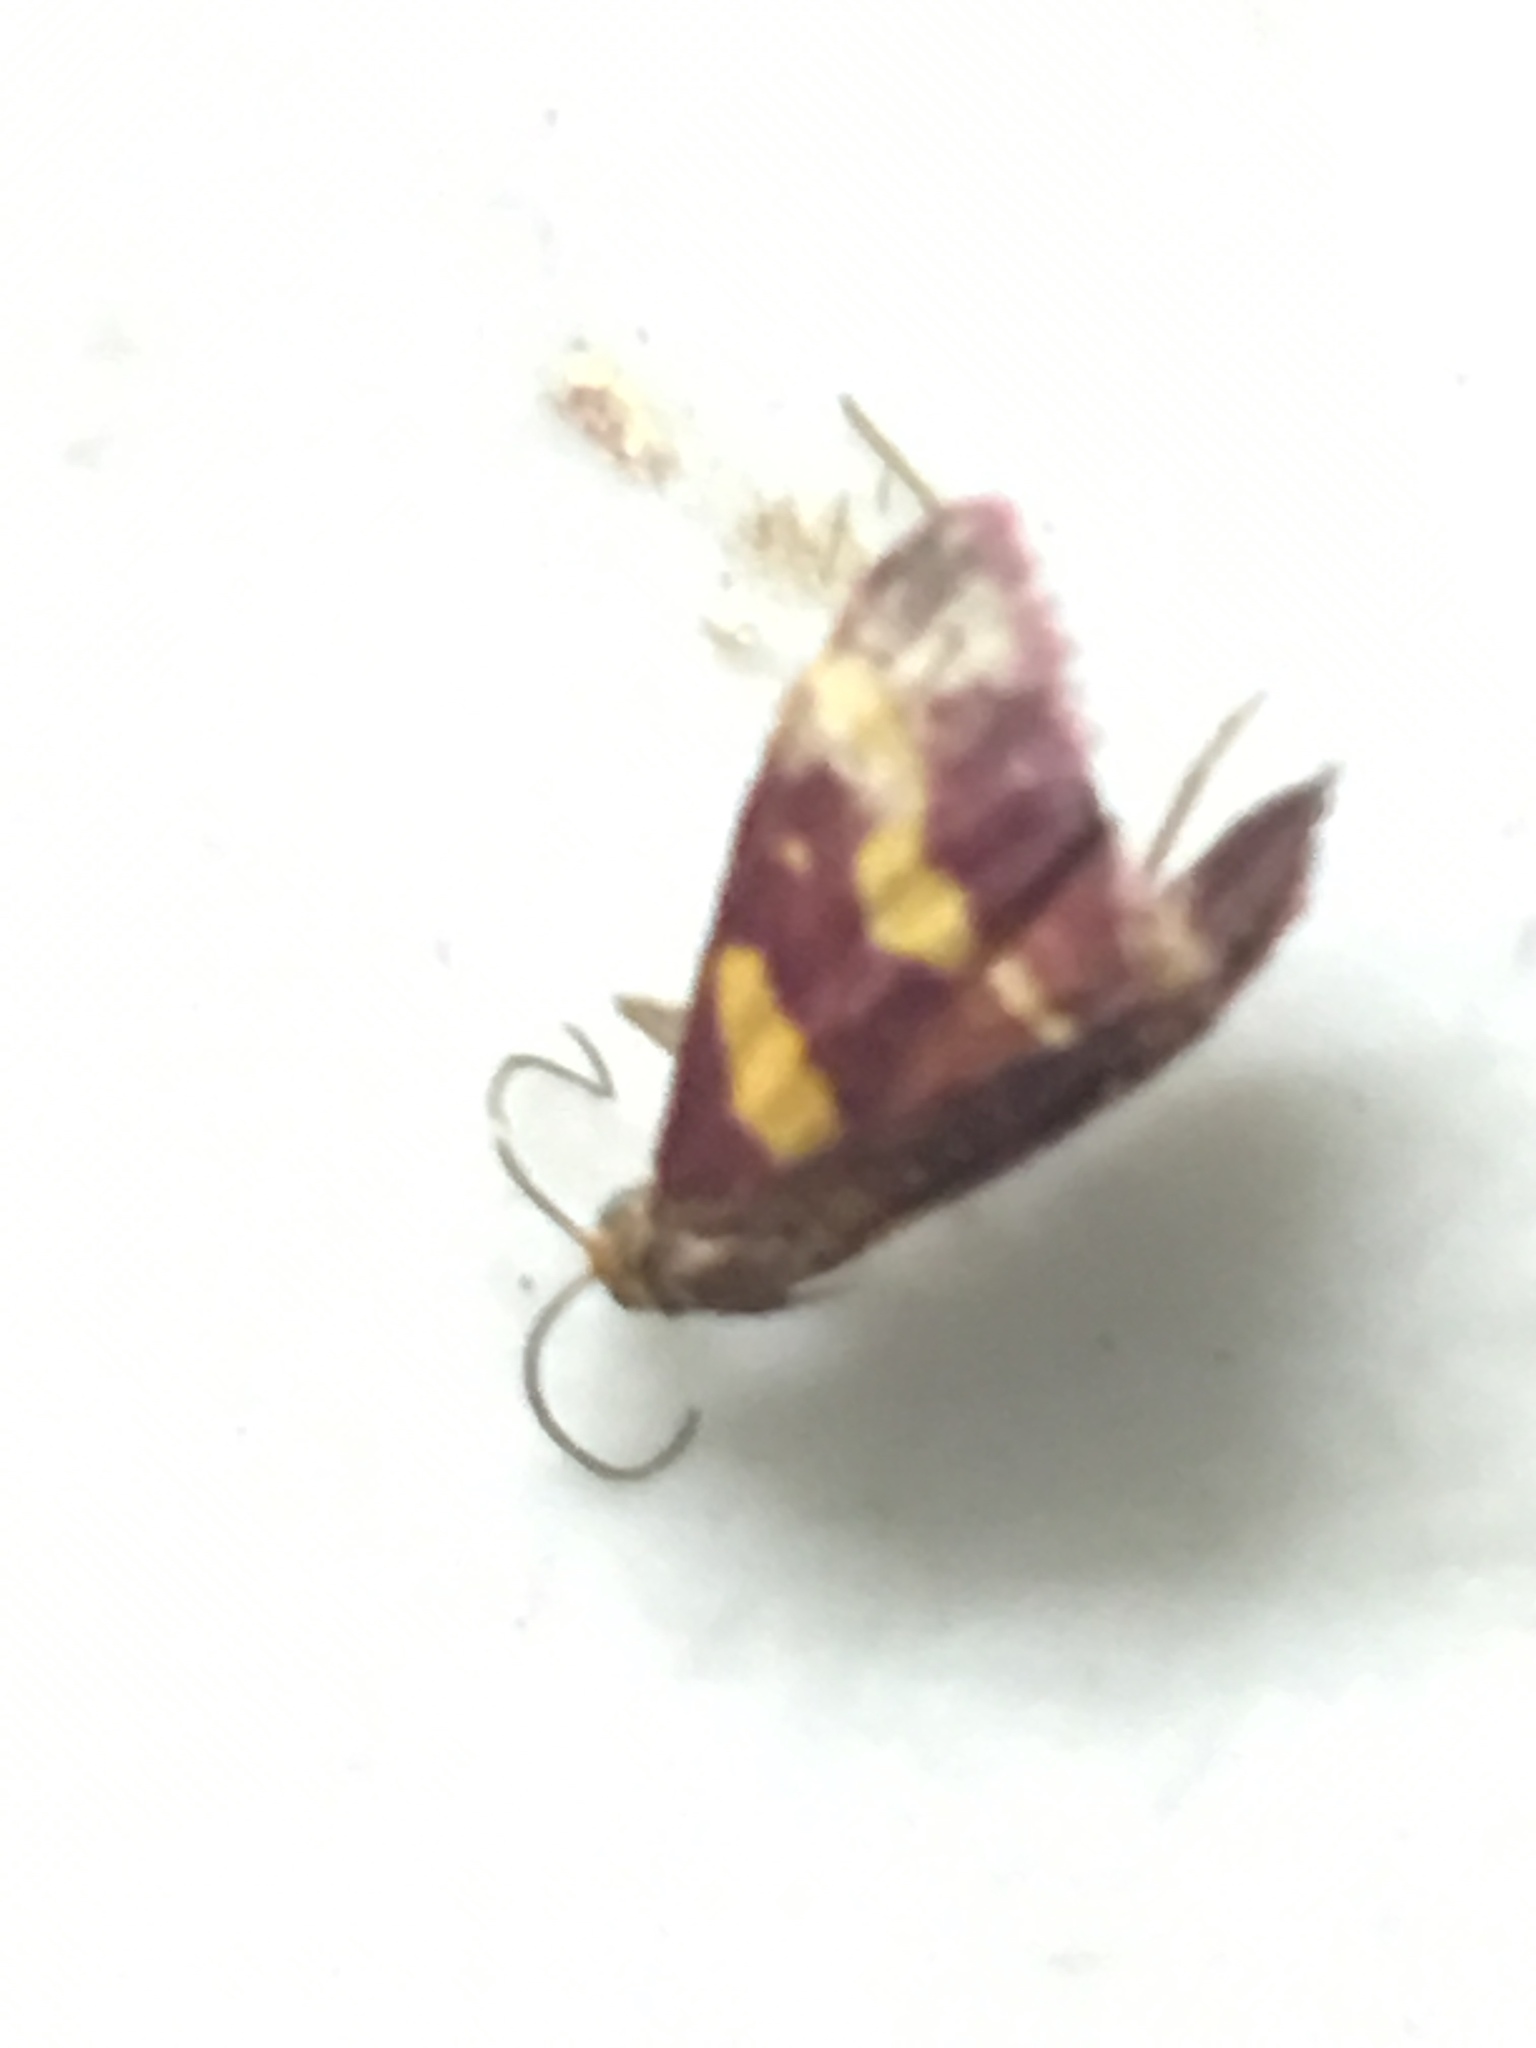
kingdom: Animalia
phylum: Arthropoda
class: Insecta
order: Lepidoptera
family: Crambidae
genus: Pyrausta
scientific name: Pyrausta tyralis
